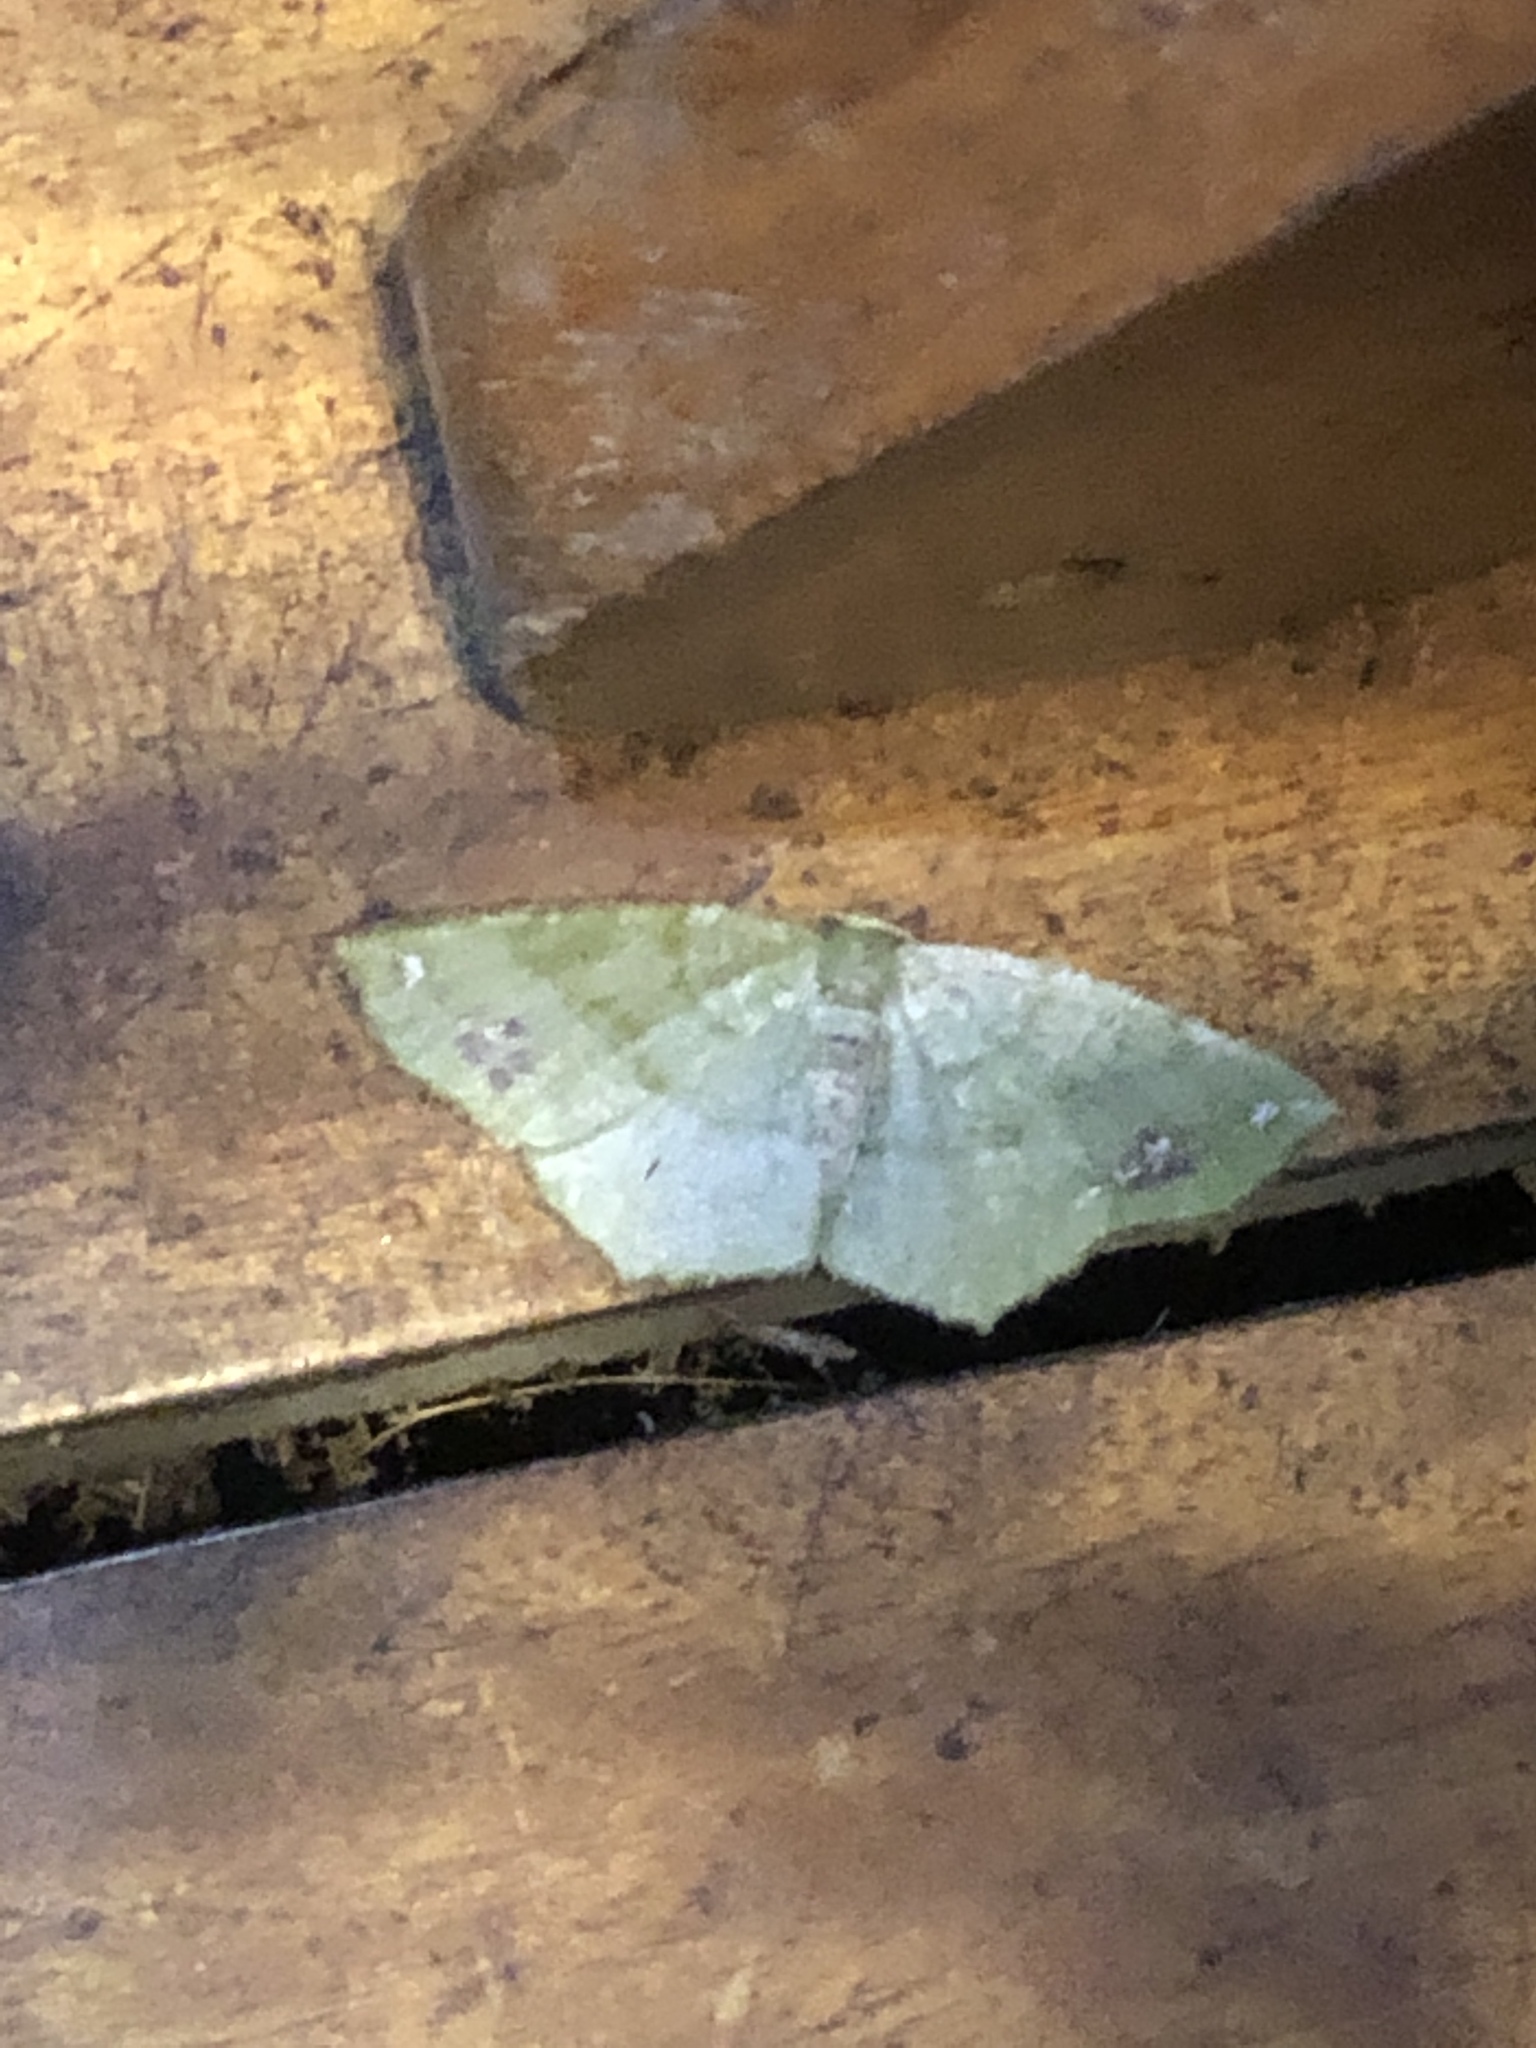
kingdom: Animalia
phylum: Arthropoda
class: Insecta
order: Lepidoptera
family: Geometridae
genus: Himeromima
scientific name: Himeromima aulis
